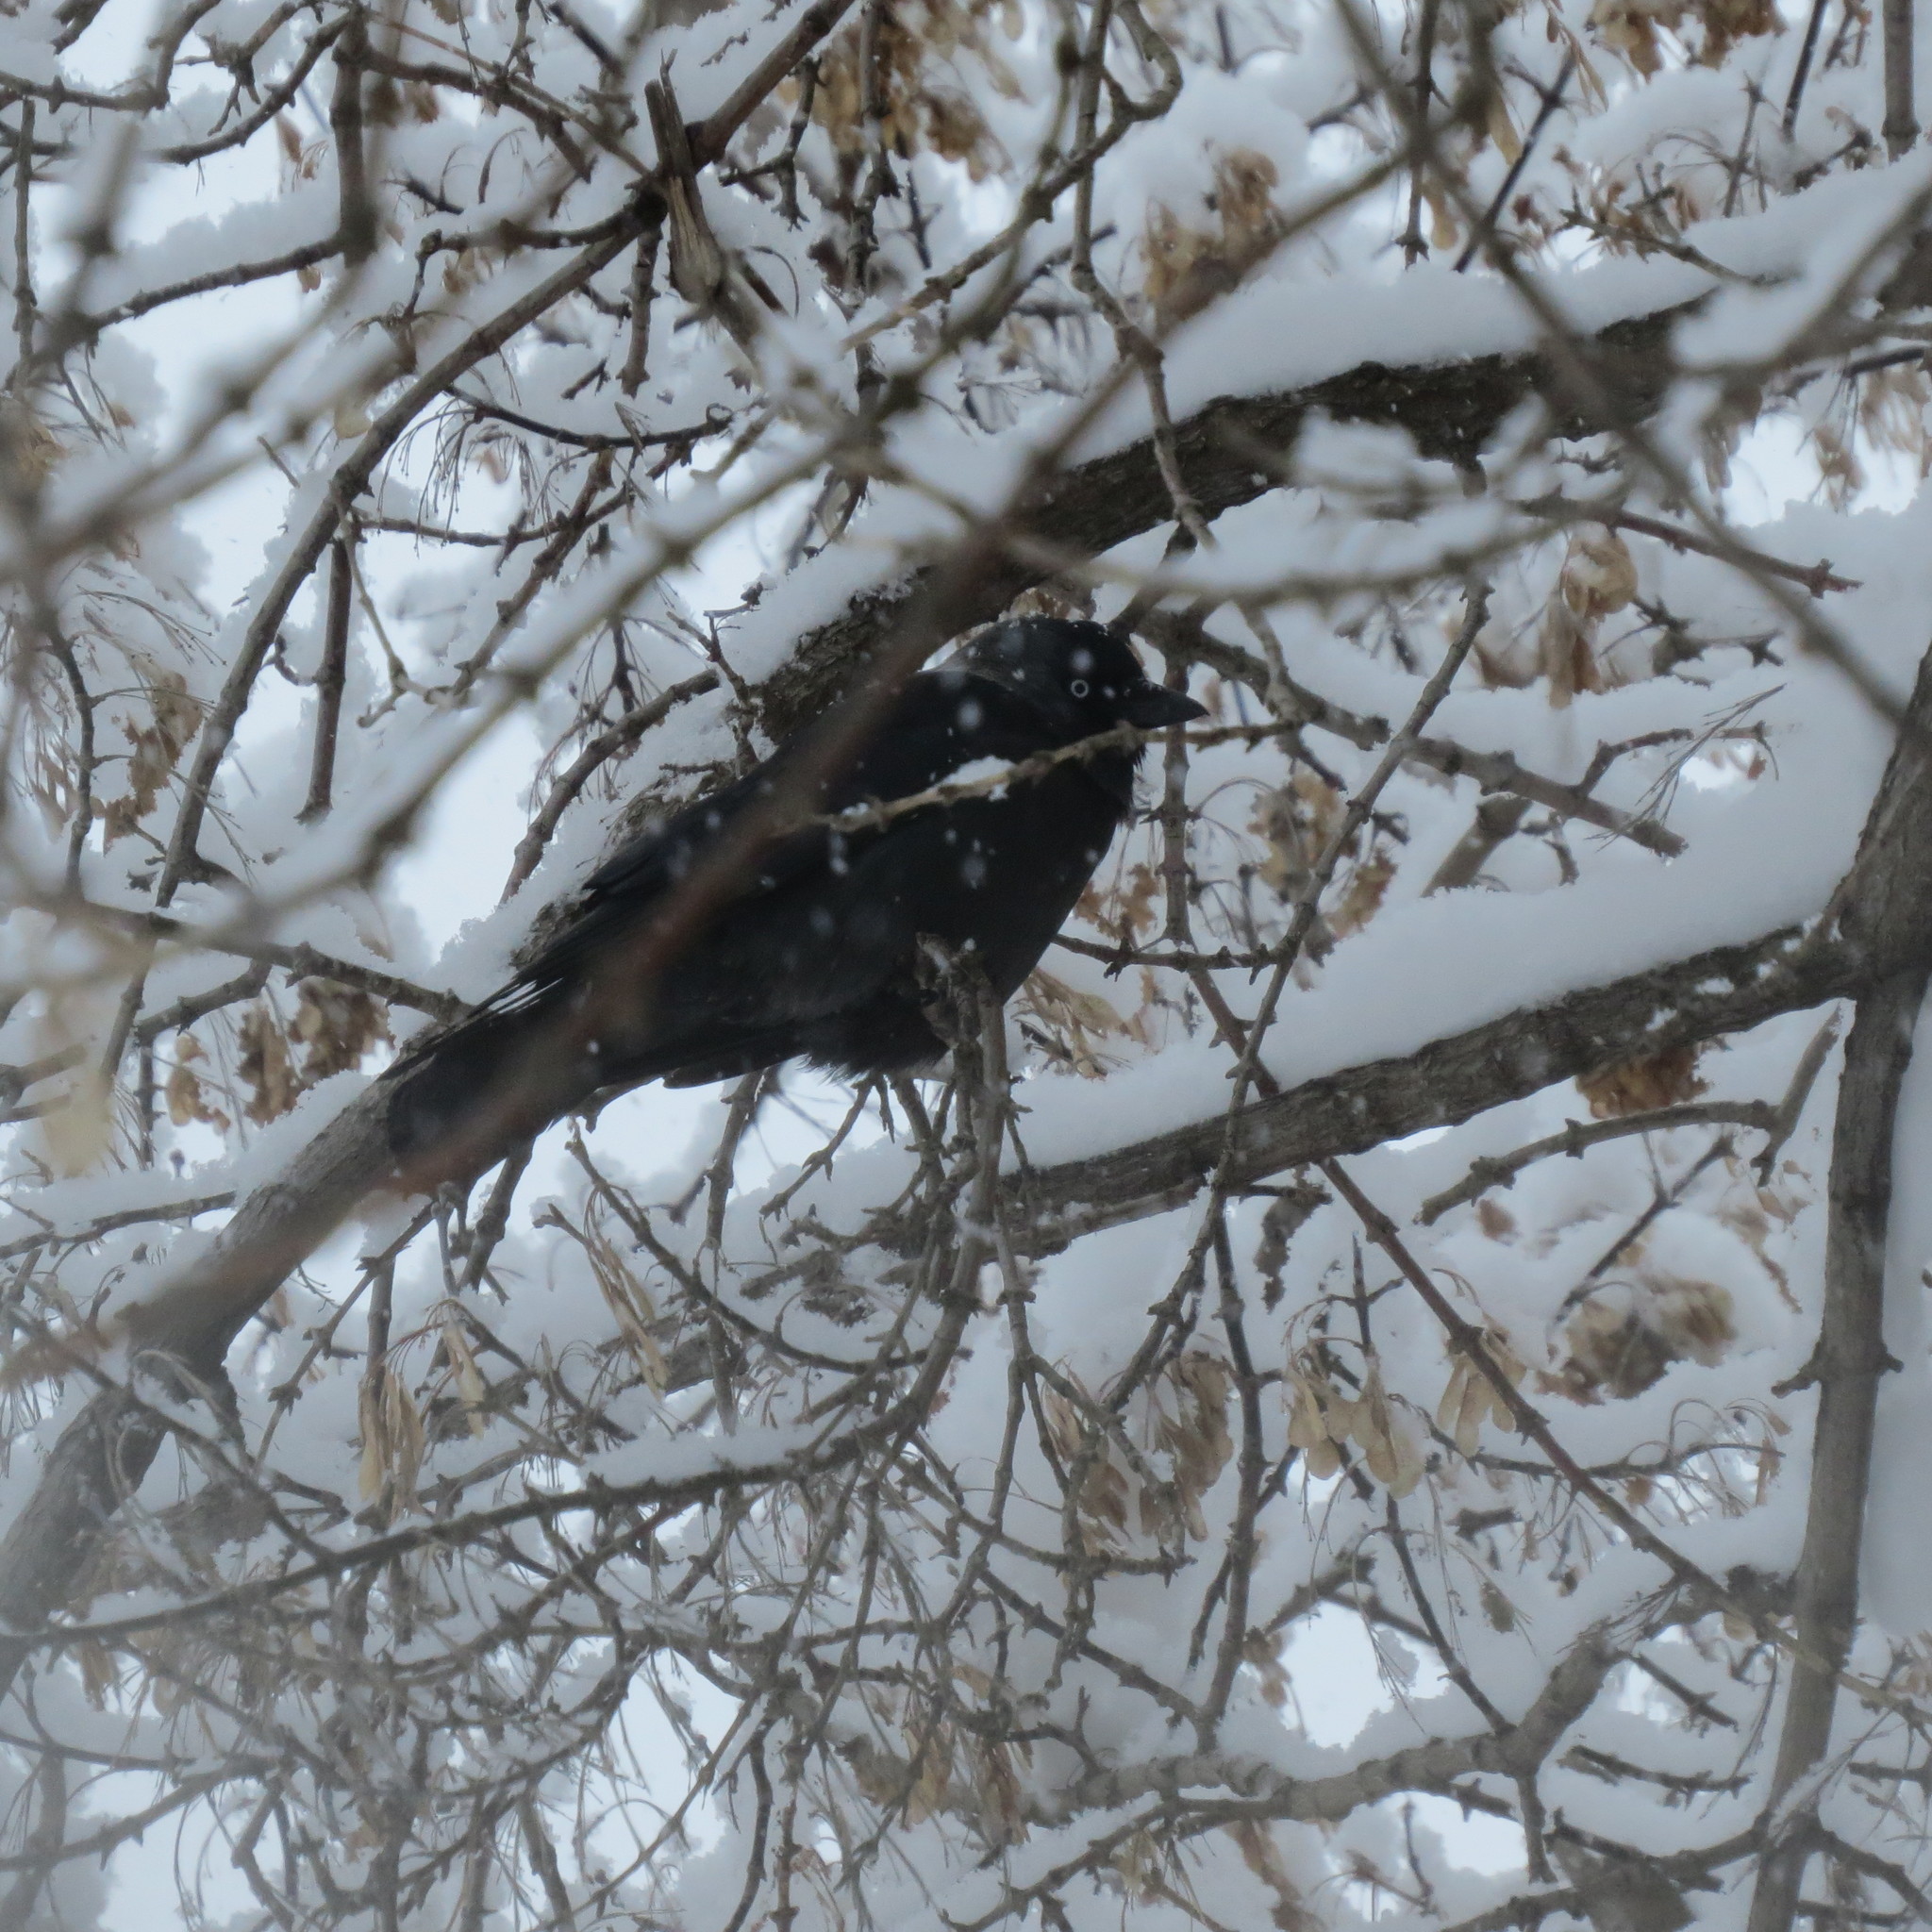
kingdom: Animalia
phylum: Chordata
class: Aves
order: Passeriformes
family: Corvidae
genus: Coloeus
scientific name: Coloeus monedula
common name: Western jackdaw
